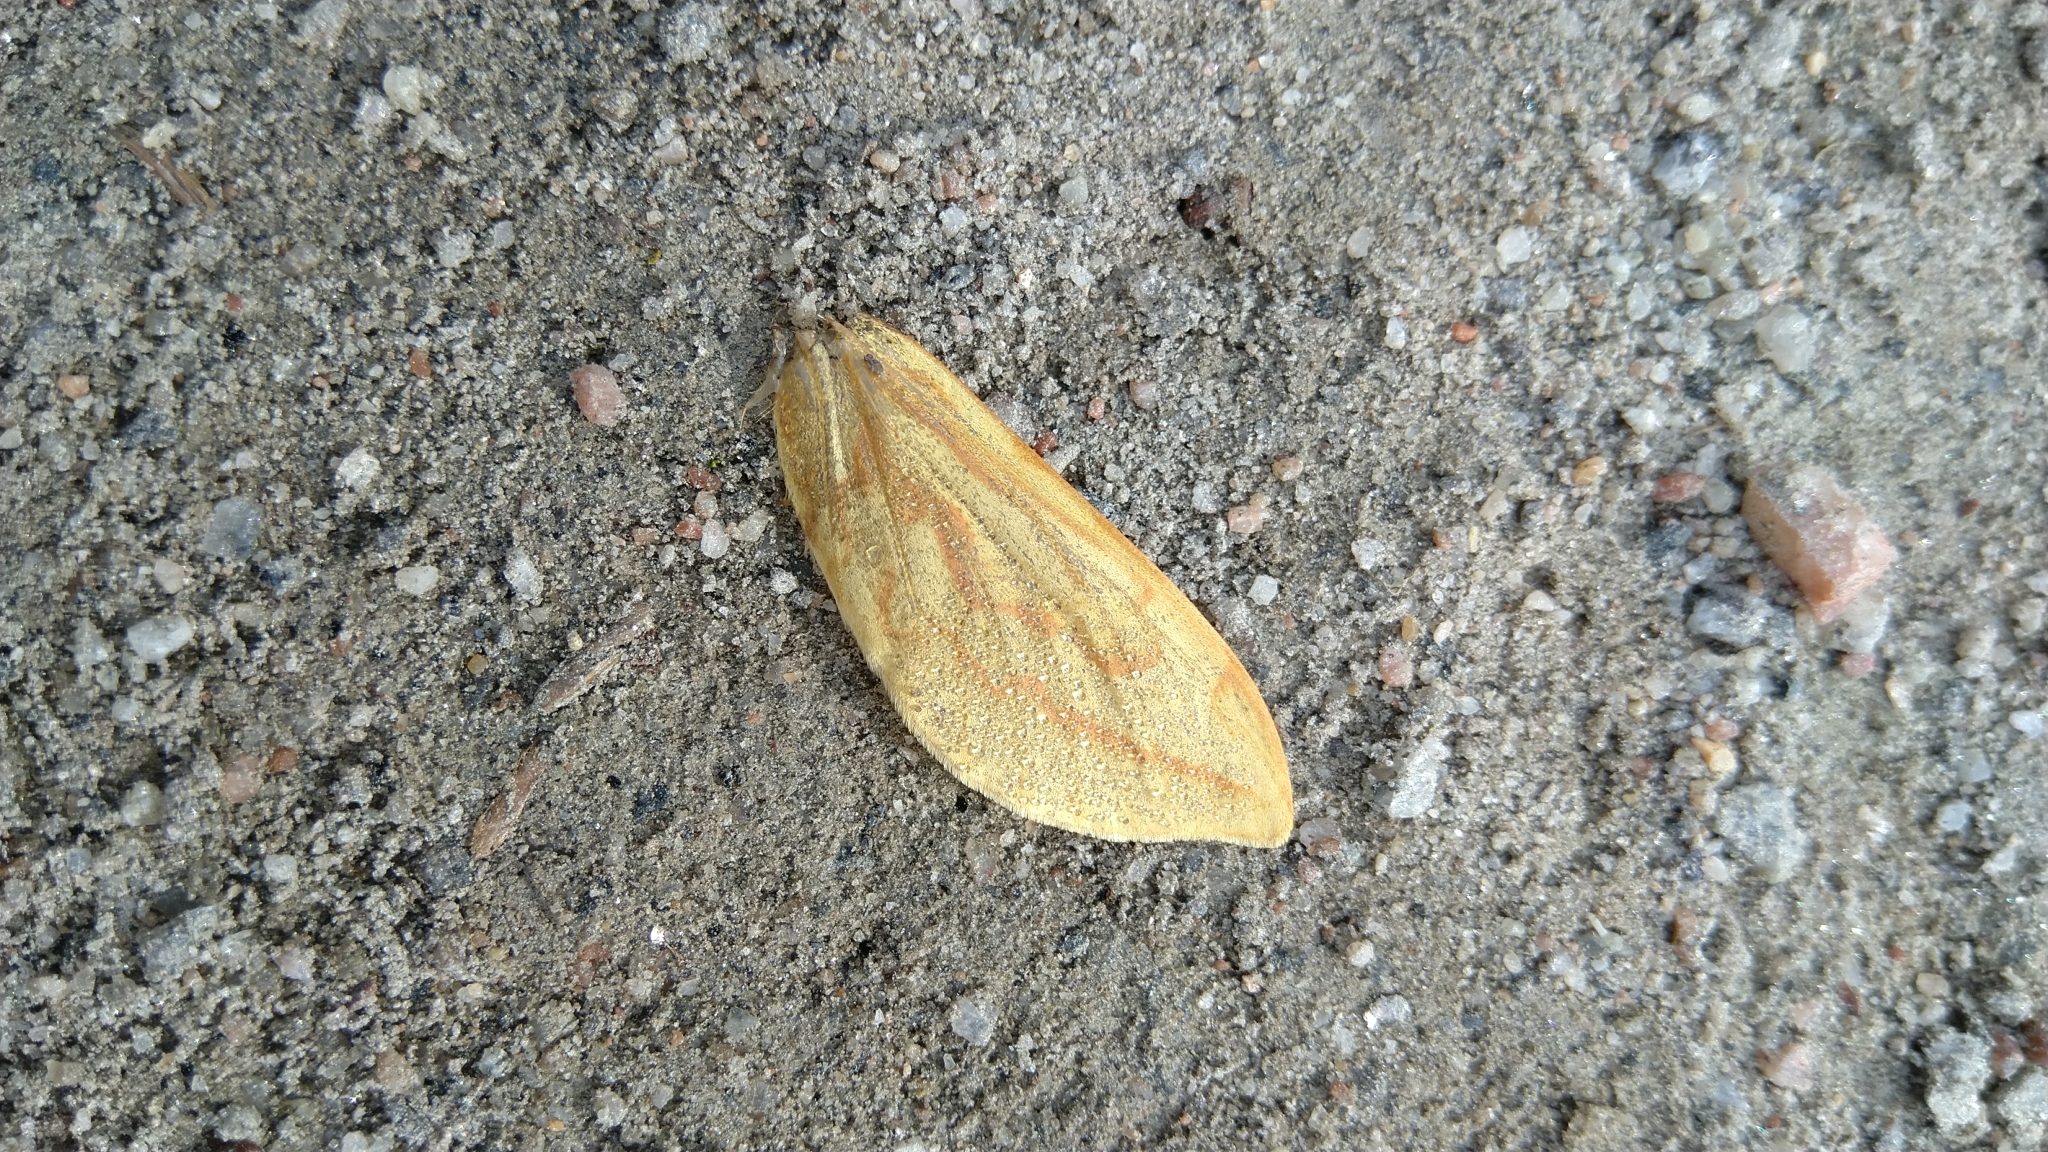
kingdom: Animalia
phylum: Arthropoda
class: Insecta
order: Lepidoptera
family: Hepialidae
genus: Hepialus
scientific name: Hepialus humuli
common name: Ghost moth
